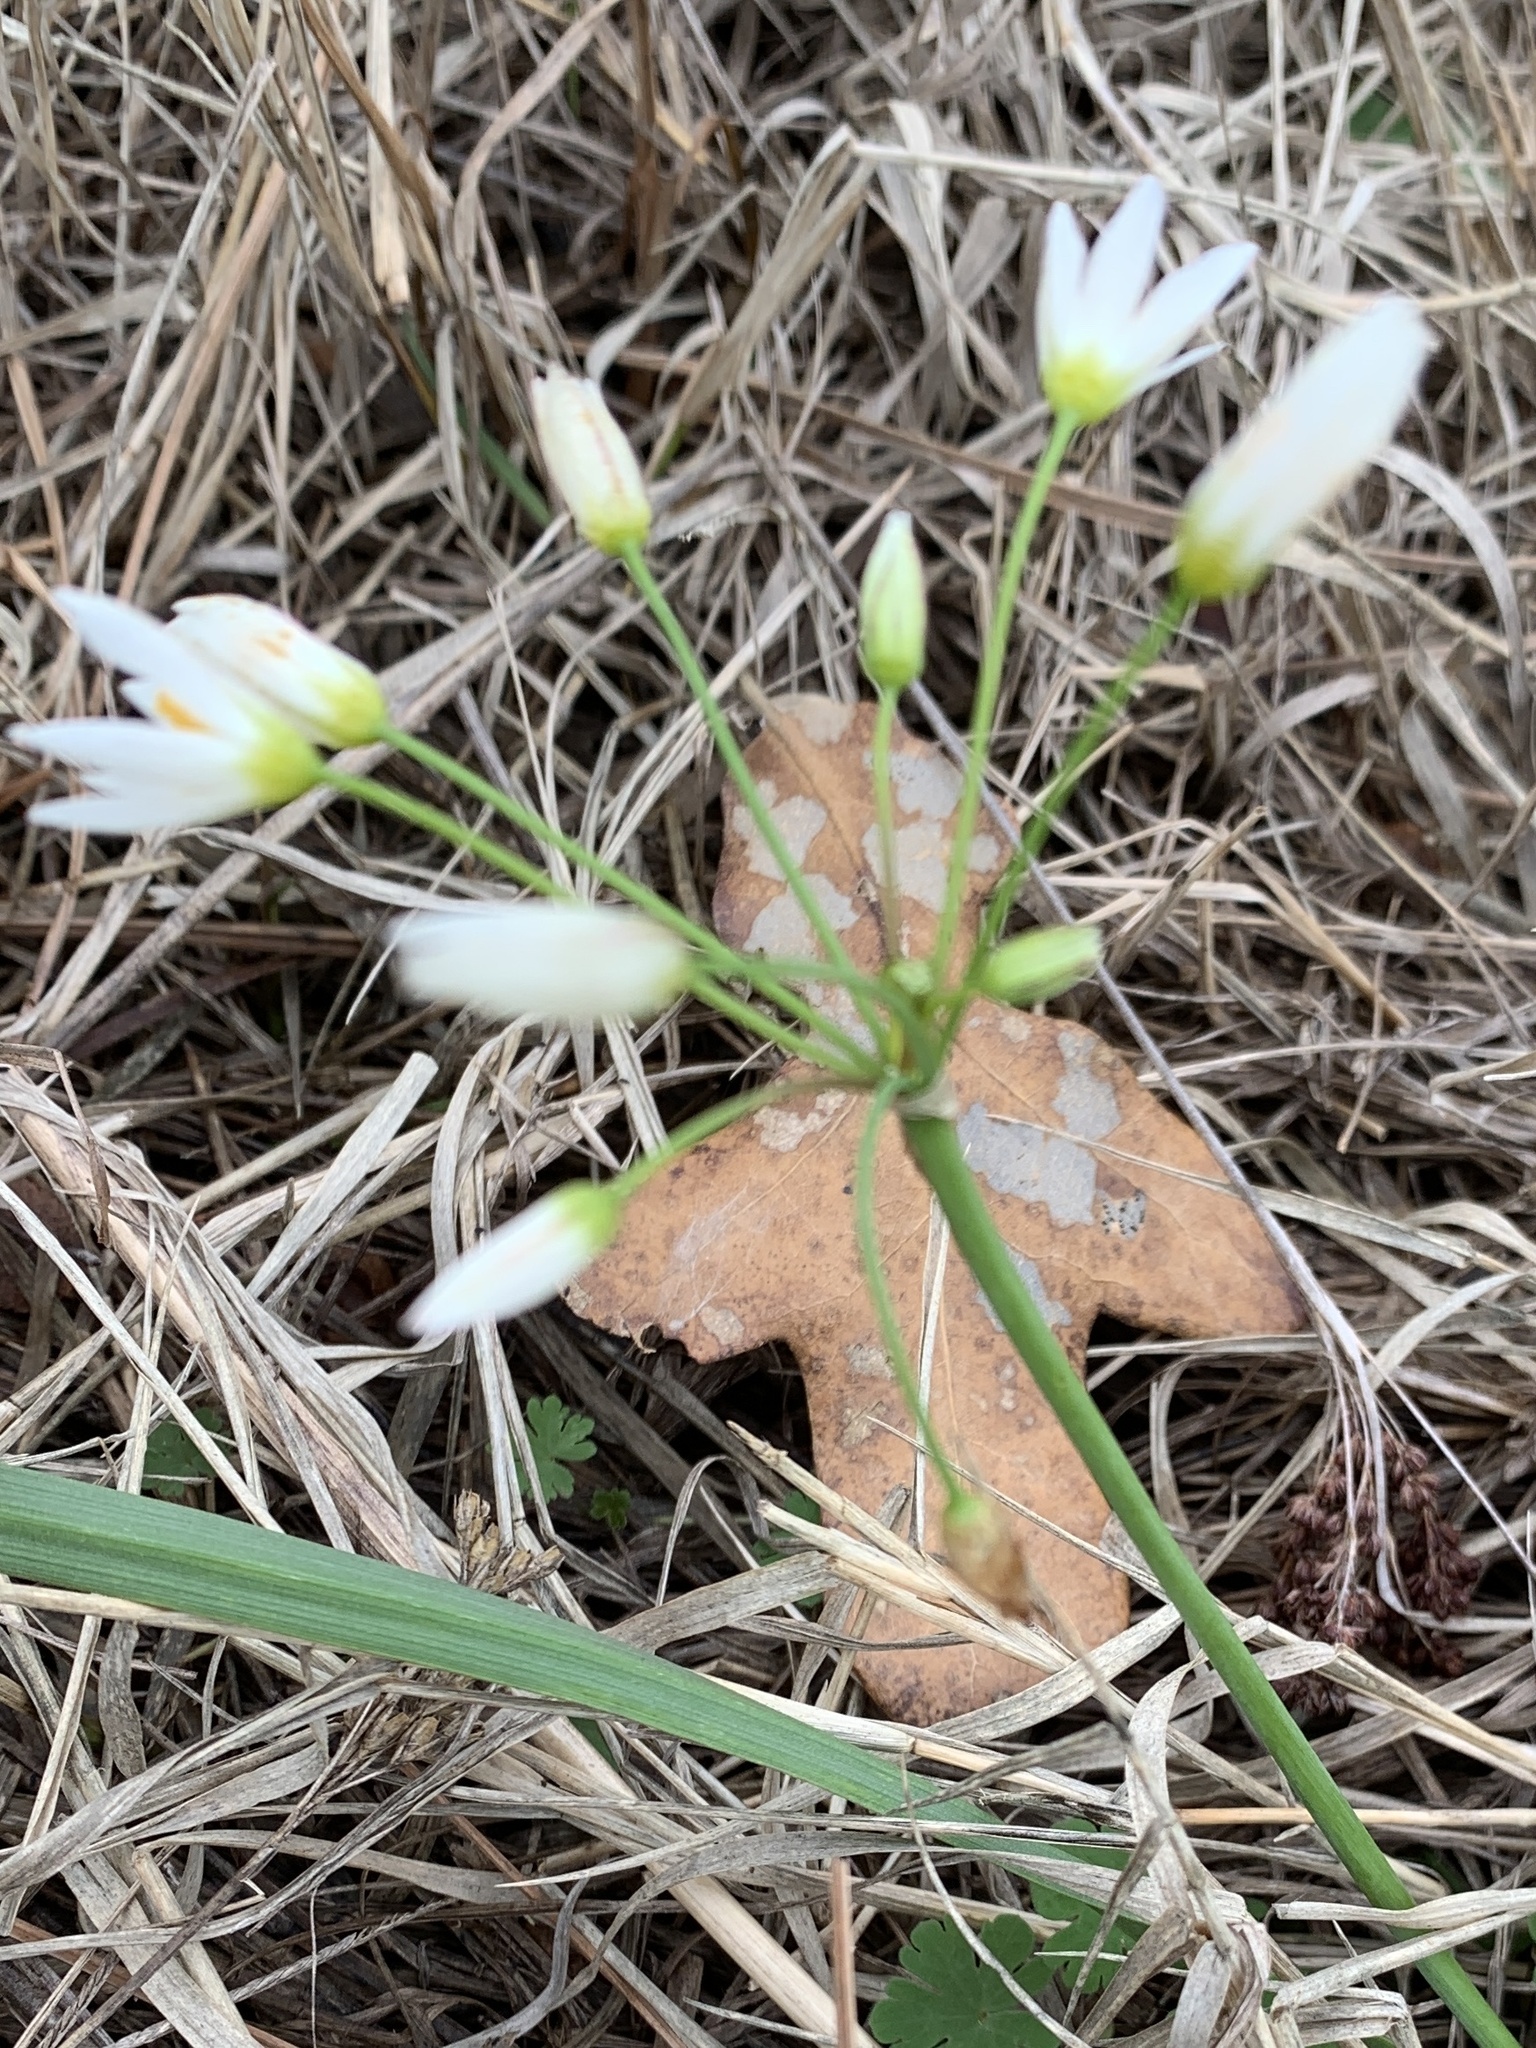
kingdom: Plantae
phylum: Tracheophyta
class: Liliopsida
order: Asparagales
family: Amaryllidaceae
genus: Nothoscordum
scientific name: Nothoscordum bivalve
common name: Crow-poison
